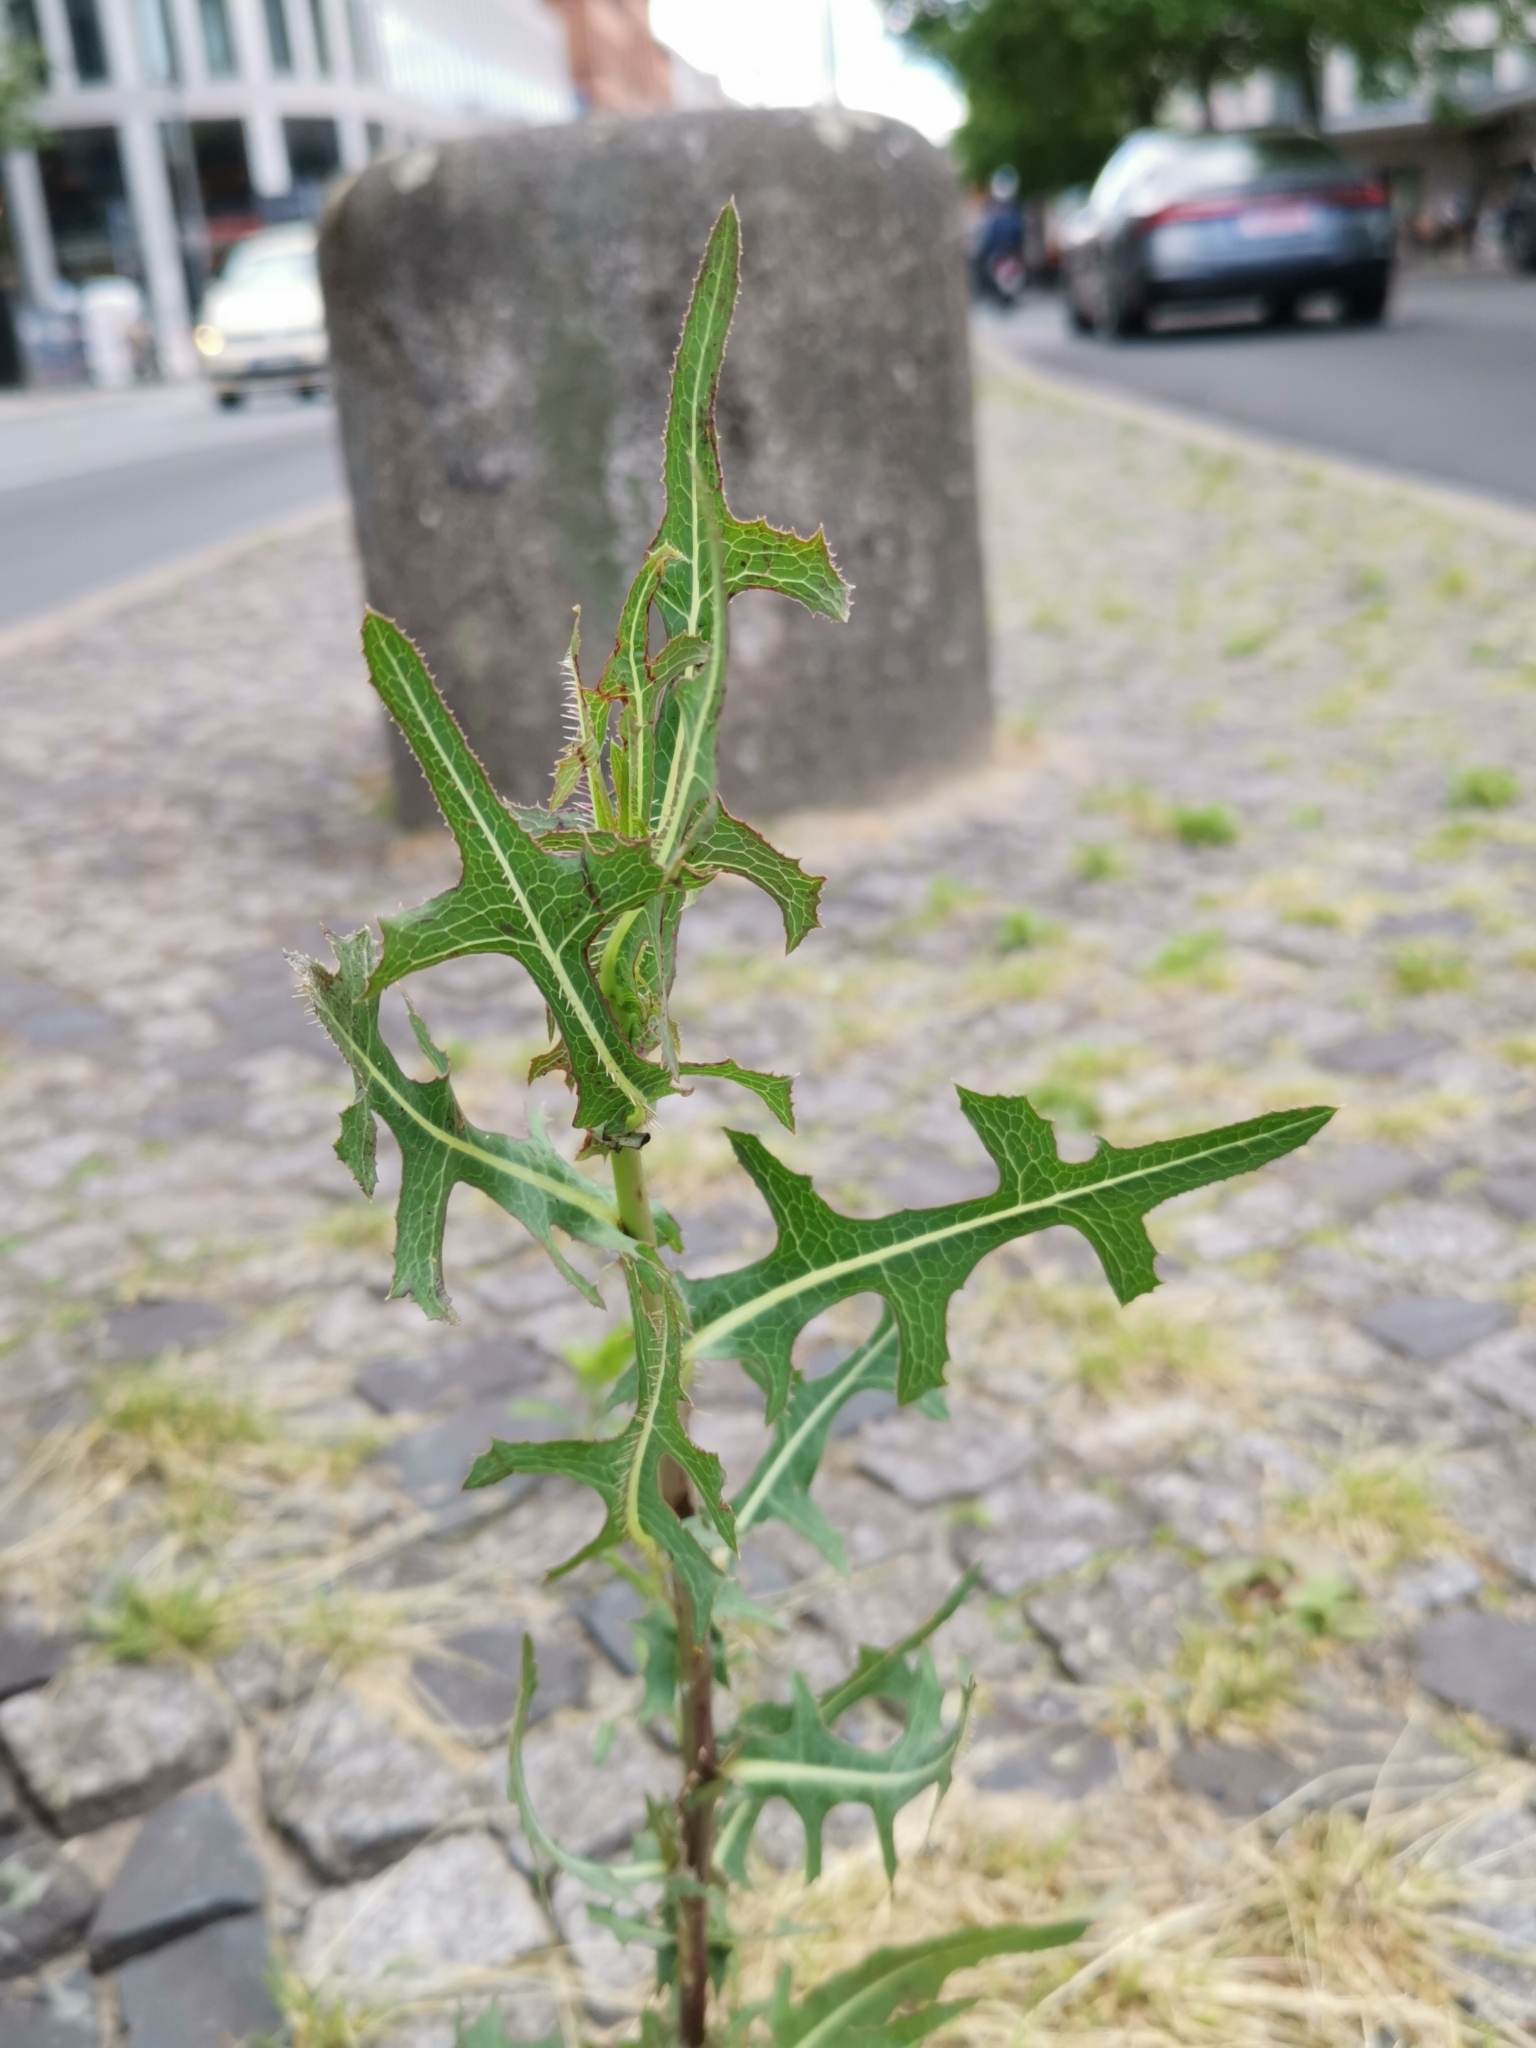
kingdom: Plantae
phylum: Tracheophyta
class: Magnoliopsida
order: Asterales
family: Asteraceae
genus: Lactuca
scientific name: Lactuca serriola
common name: Prickly lettuce
